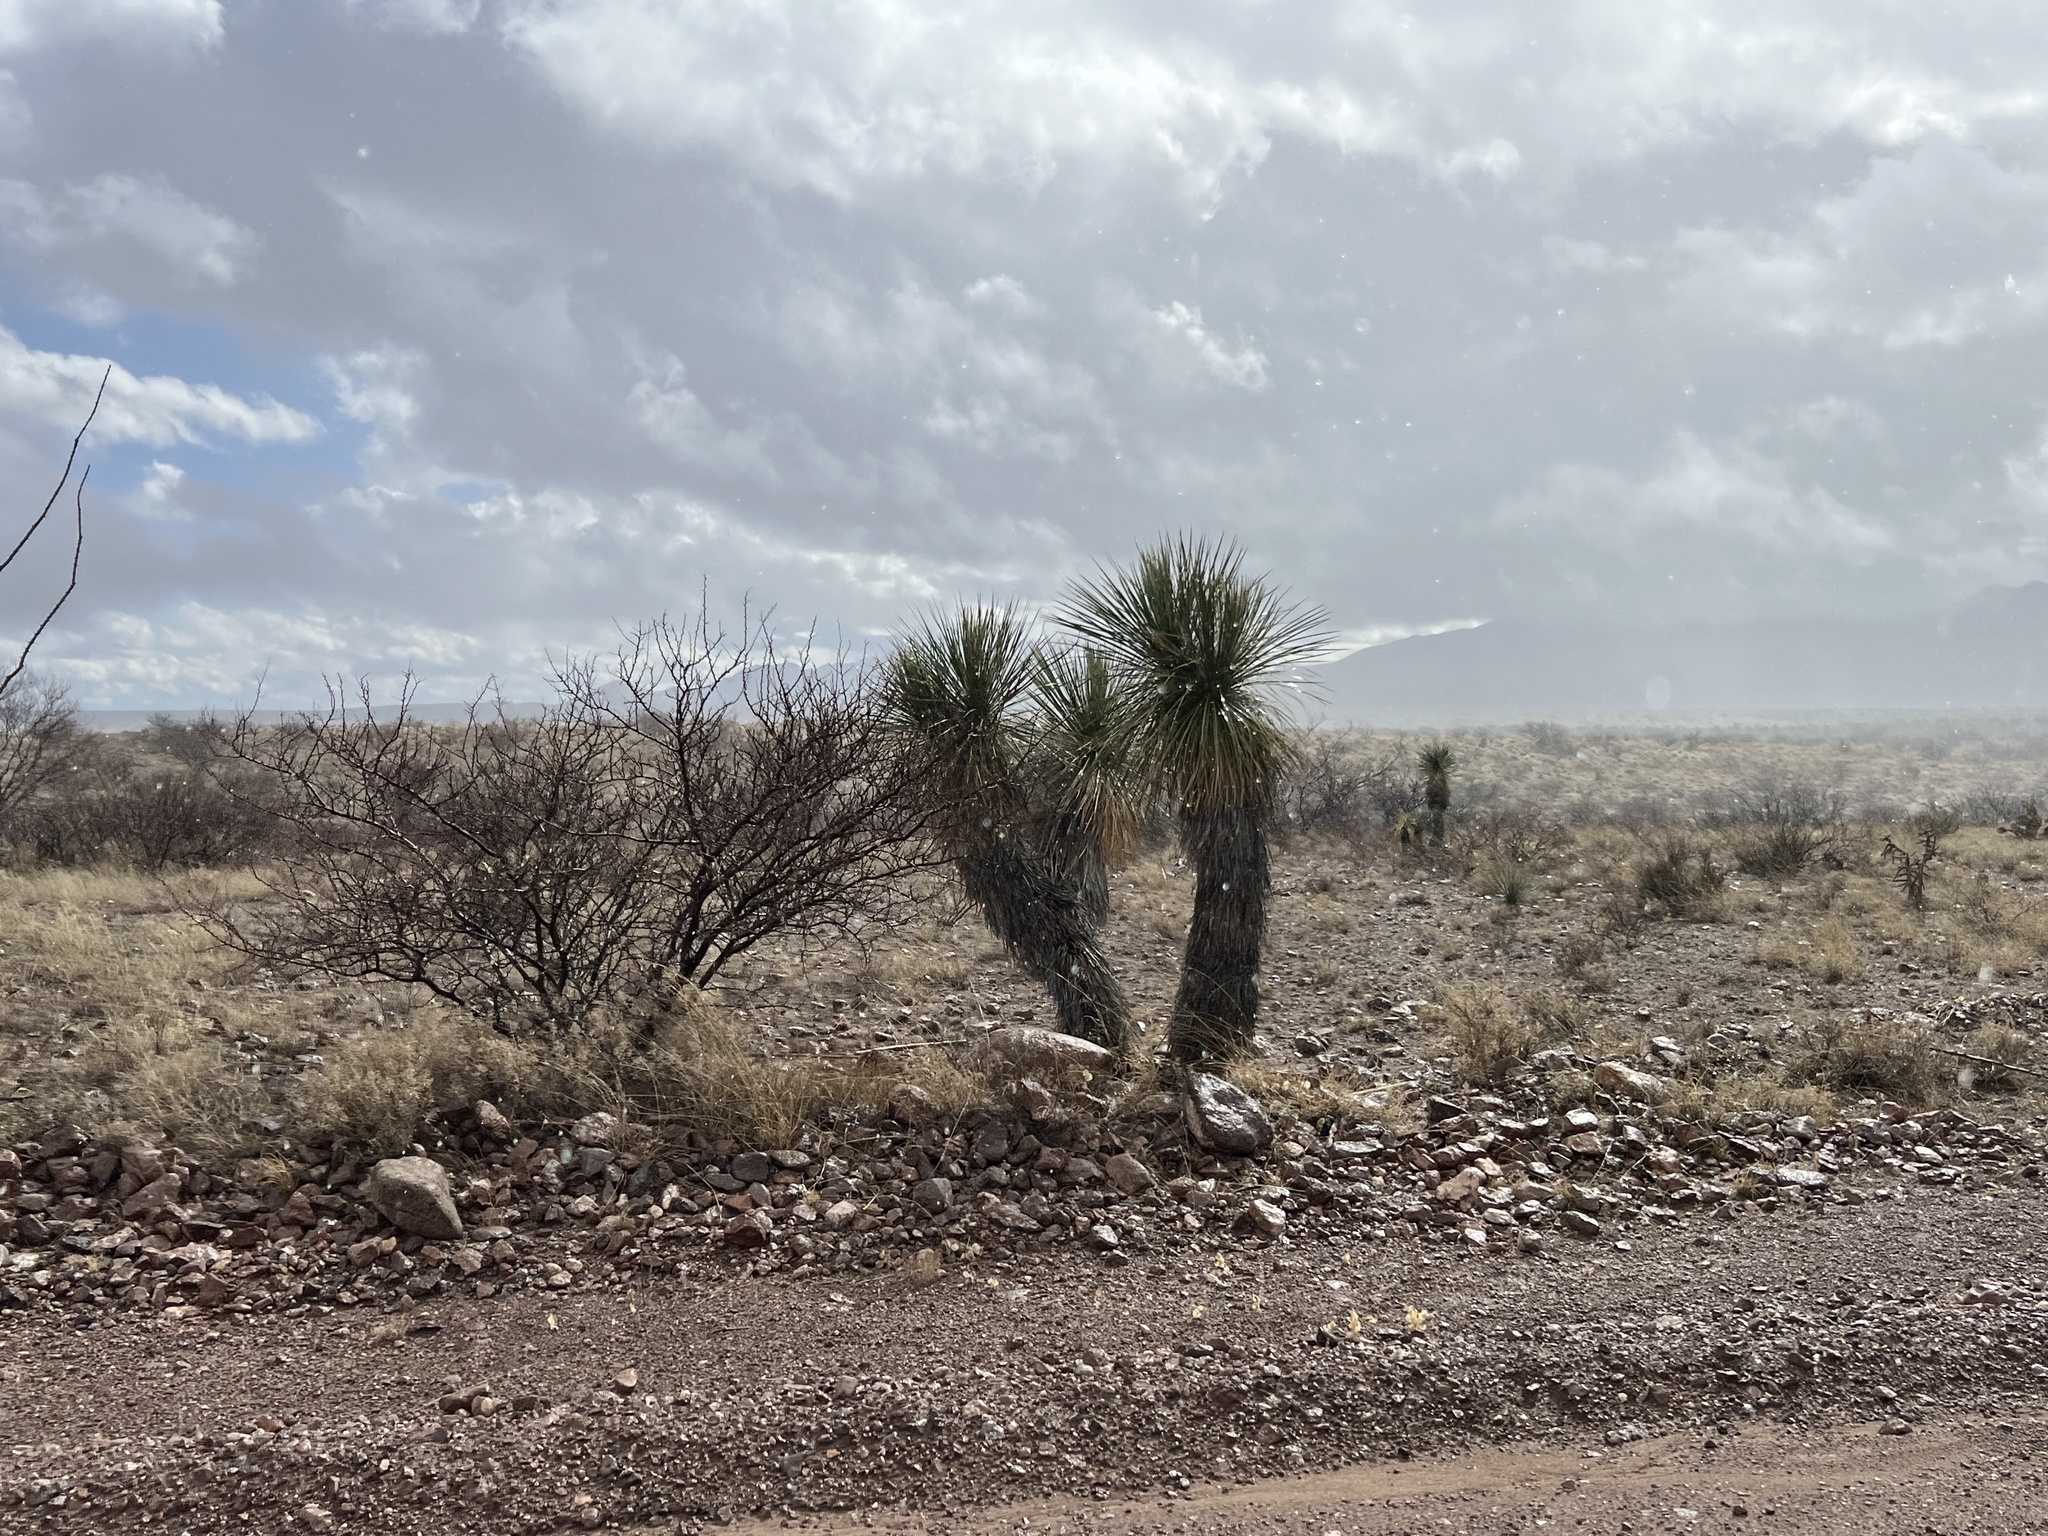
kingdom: Plantae
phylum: Tracheophyta
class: Liliopsida
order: Asparagales
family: Asparagaceae
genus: Yucca
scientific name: Yucca elata
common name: Palmella
